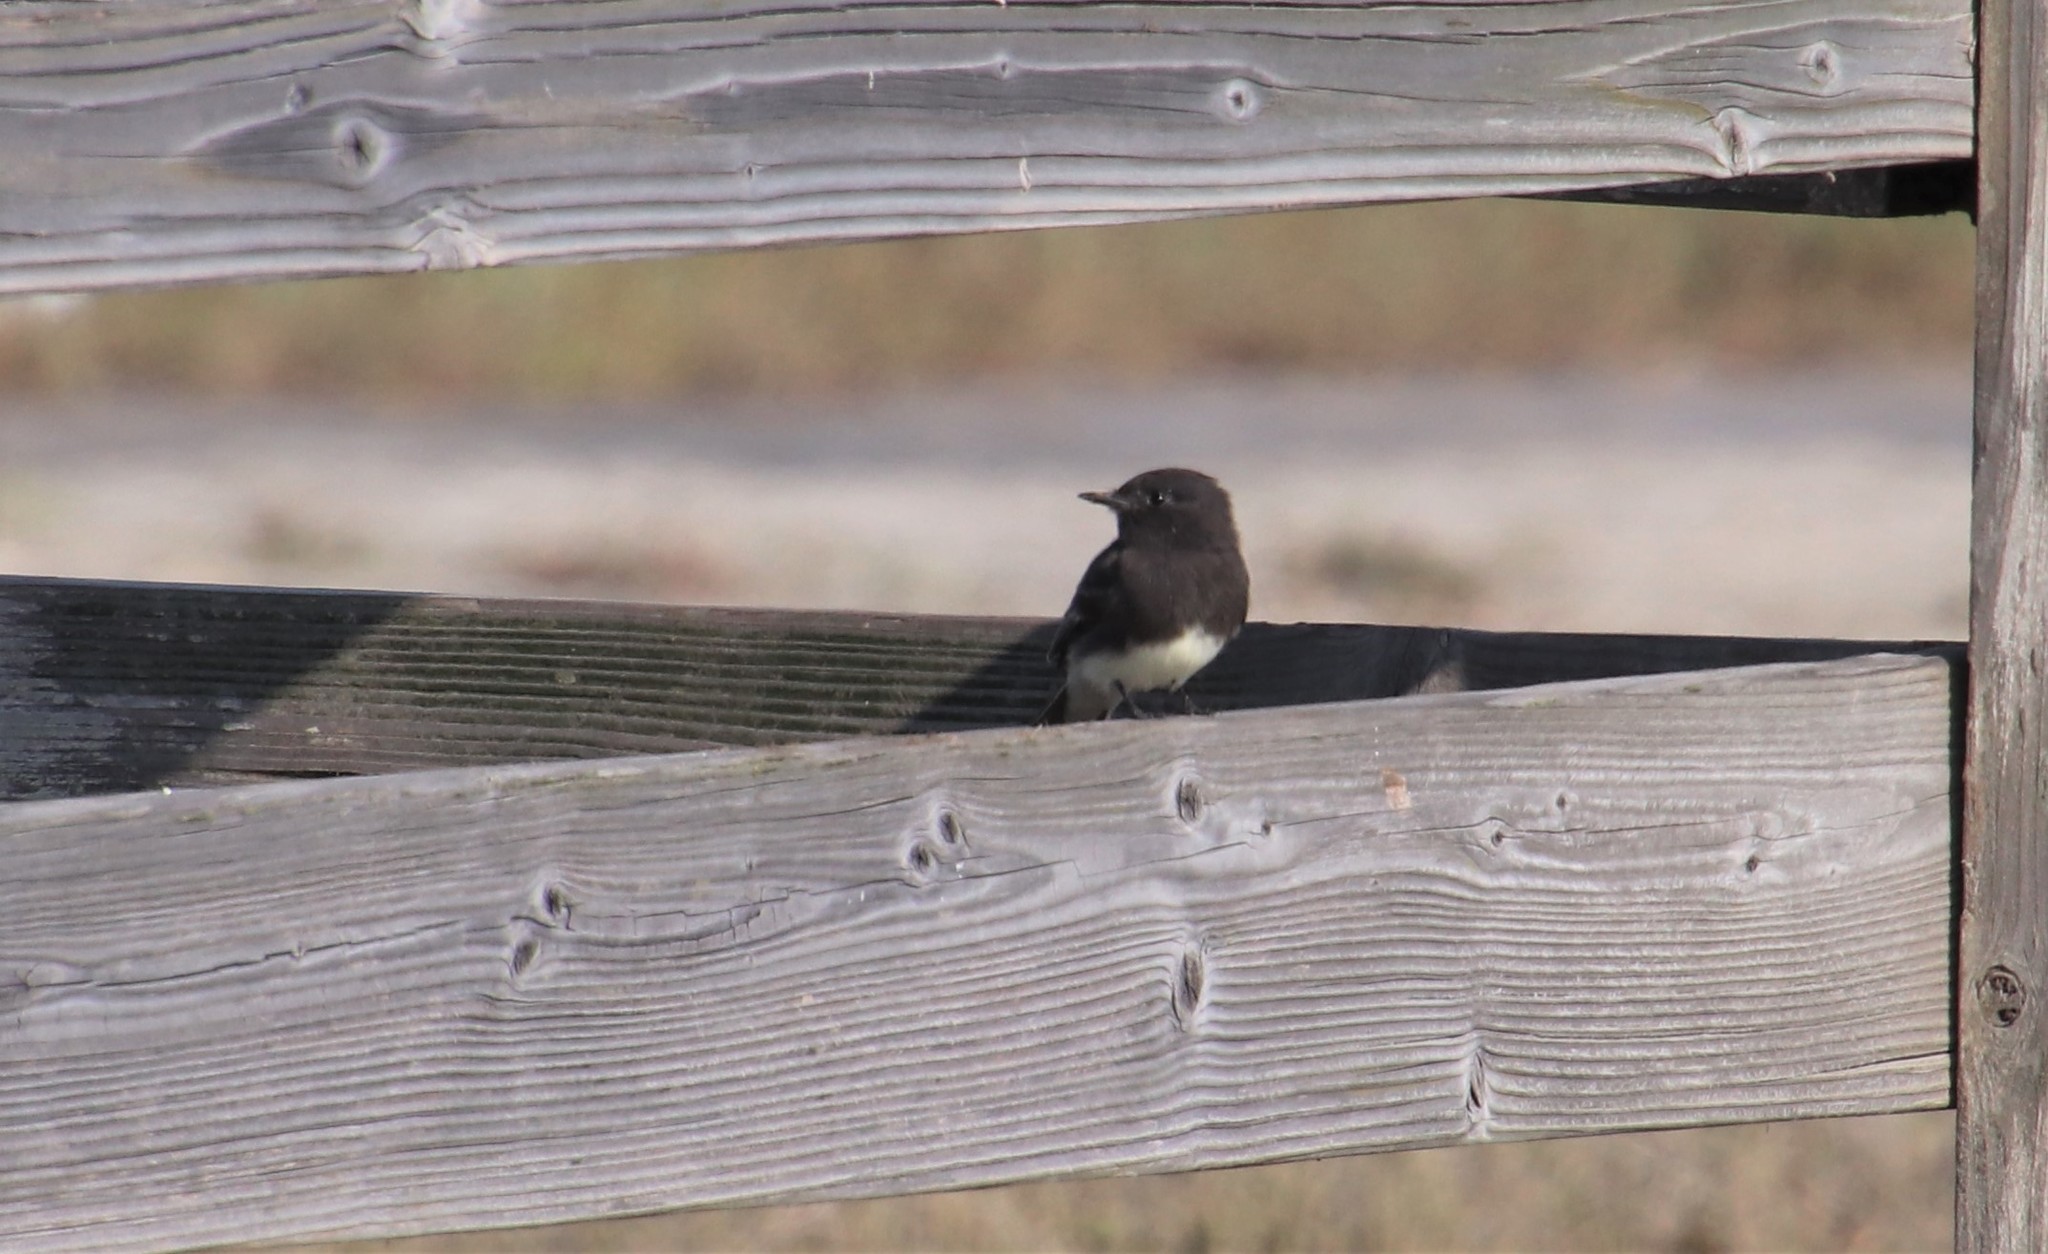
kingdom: Animalia
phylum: Chordata
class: Aves
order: Passeriformes
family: Tyrannidae
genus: Sayornis
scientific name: Sayornis nigricans
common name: Black phoebe
